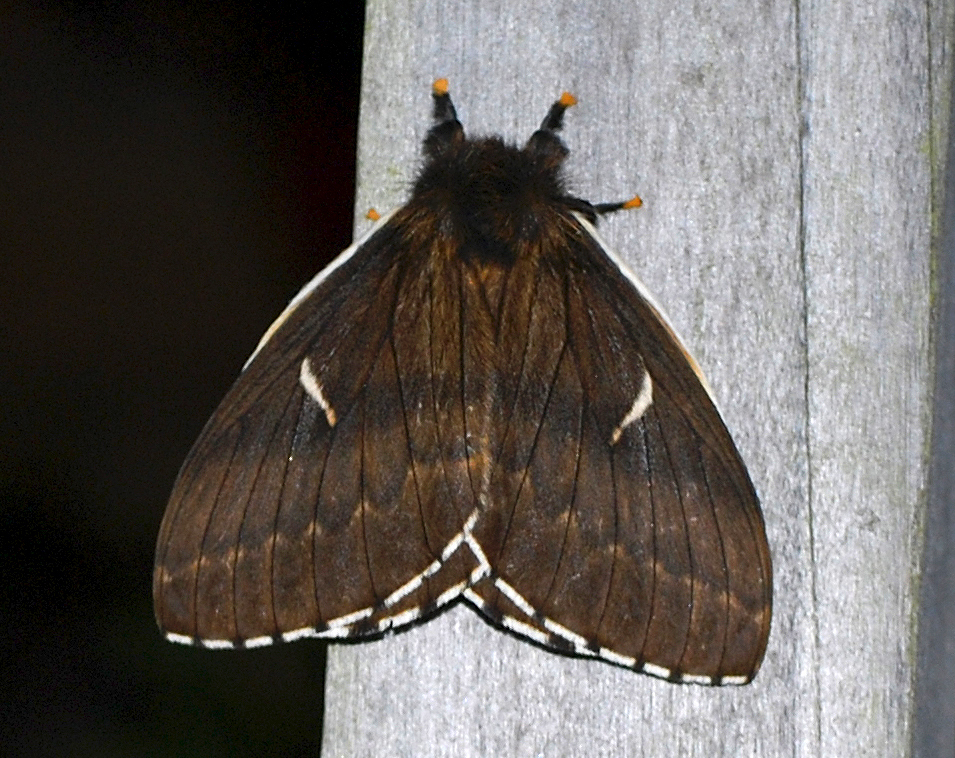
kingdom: Animalia
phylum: Arthropoda
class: Insecta
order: Lepidoptera
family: Saturniidae
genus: Meroleuca
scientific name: Meroleuca litura
